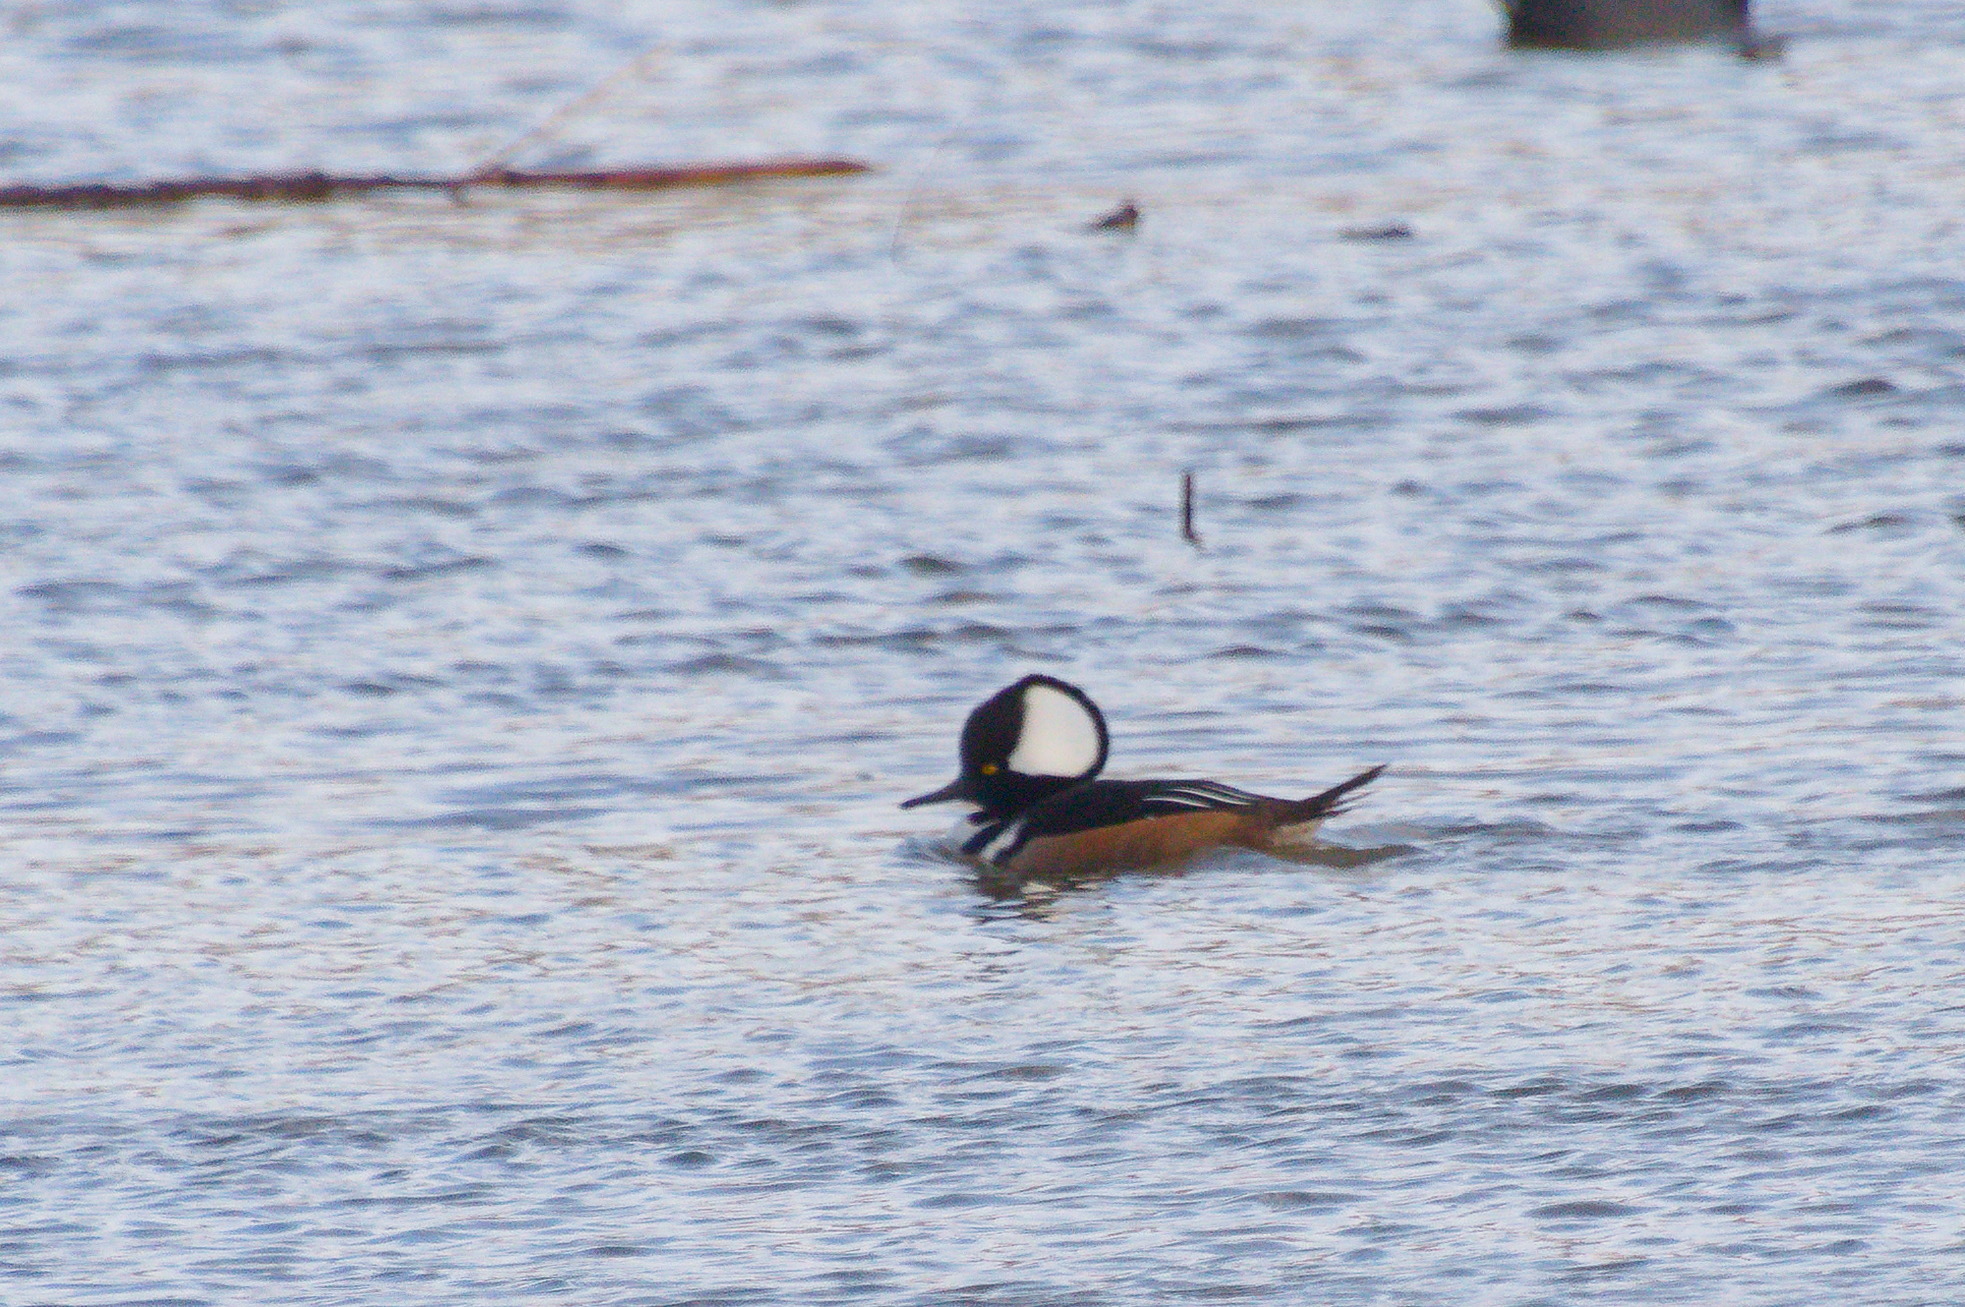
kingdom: Animalia
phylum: Chordata
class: Aves
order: Anseriformes
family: Anatidae
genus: Lophodytes
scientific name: Lophodytes cucullatus
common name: Hooded merganser
